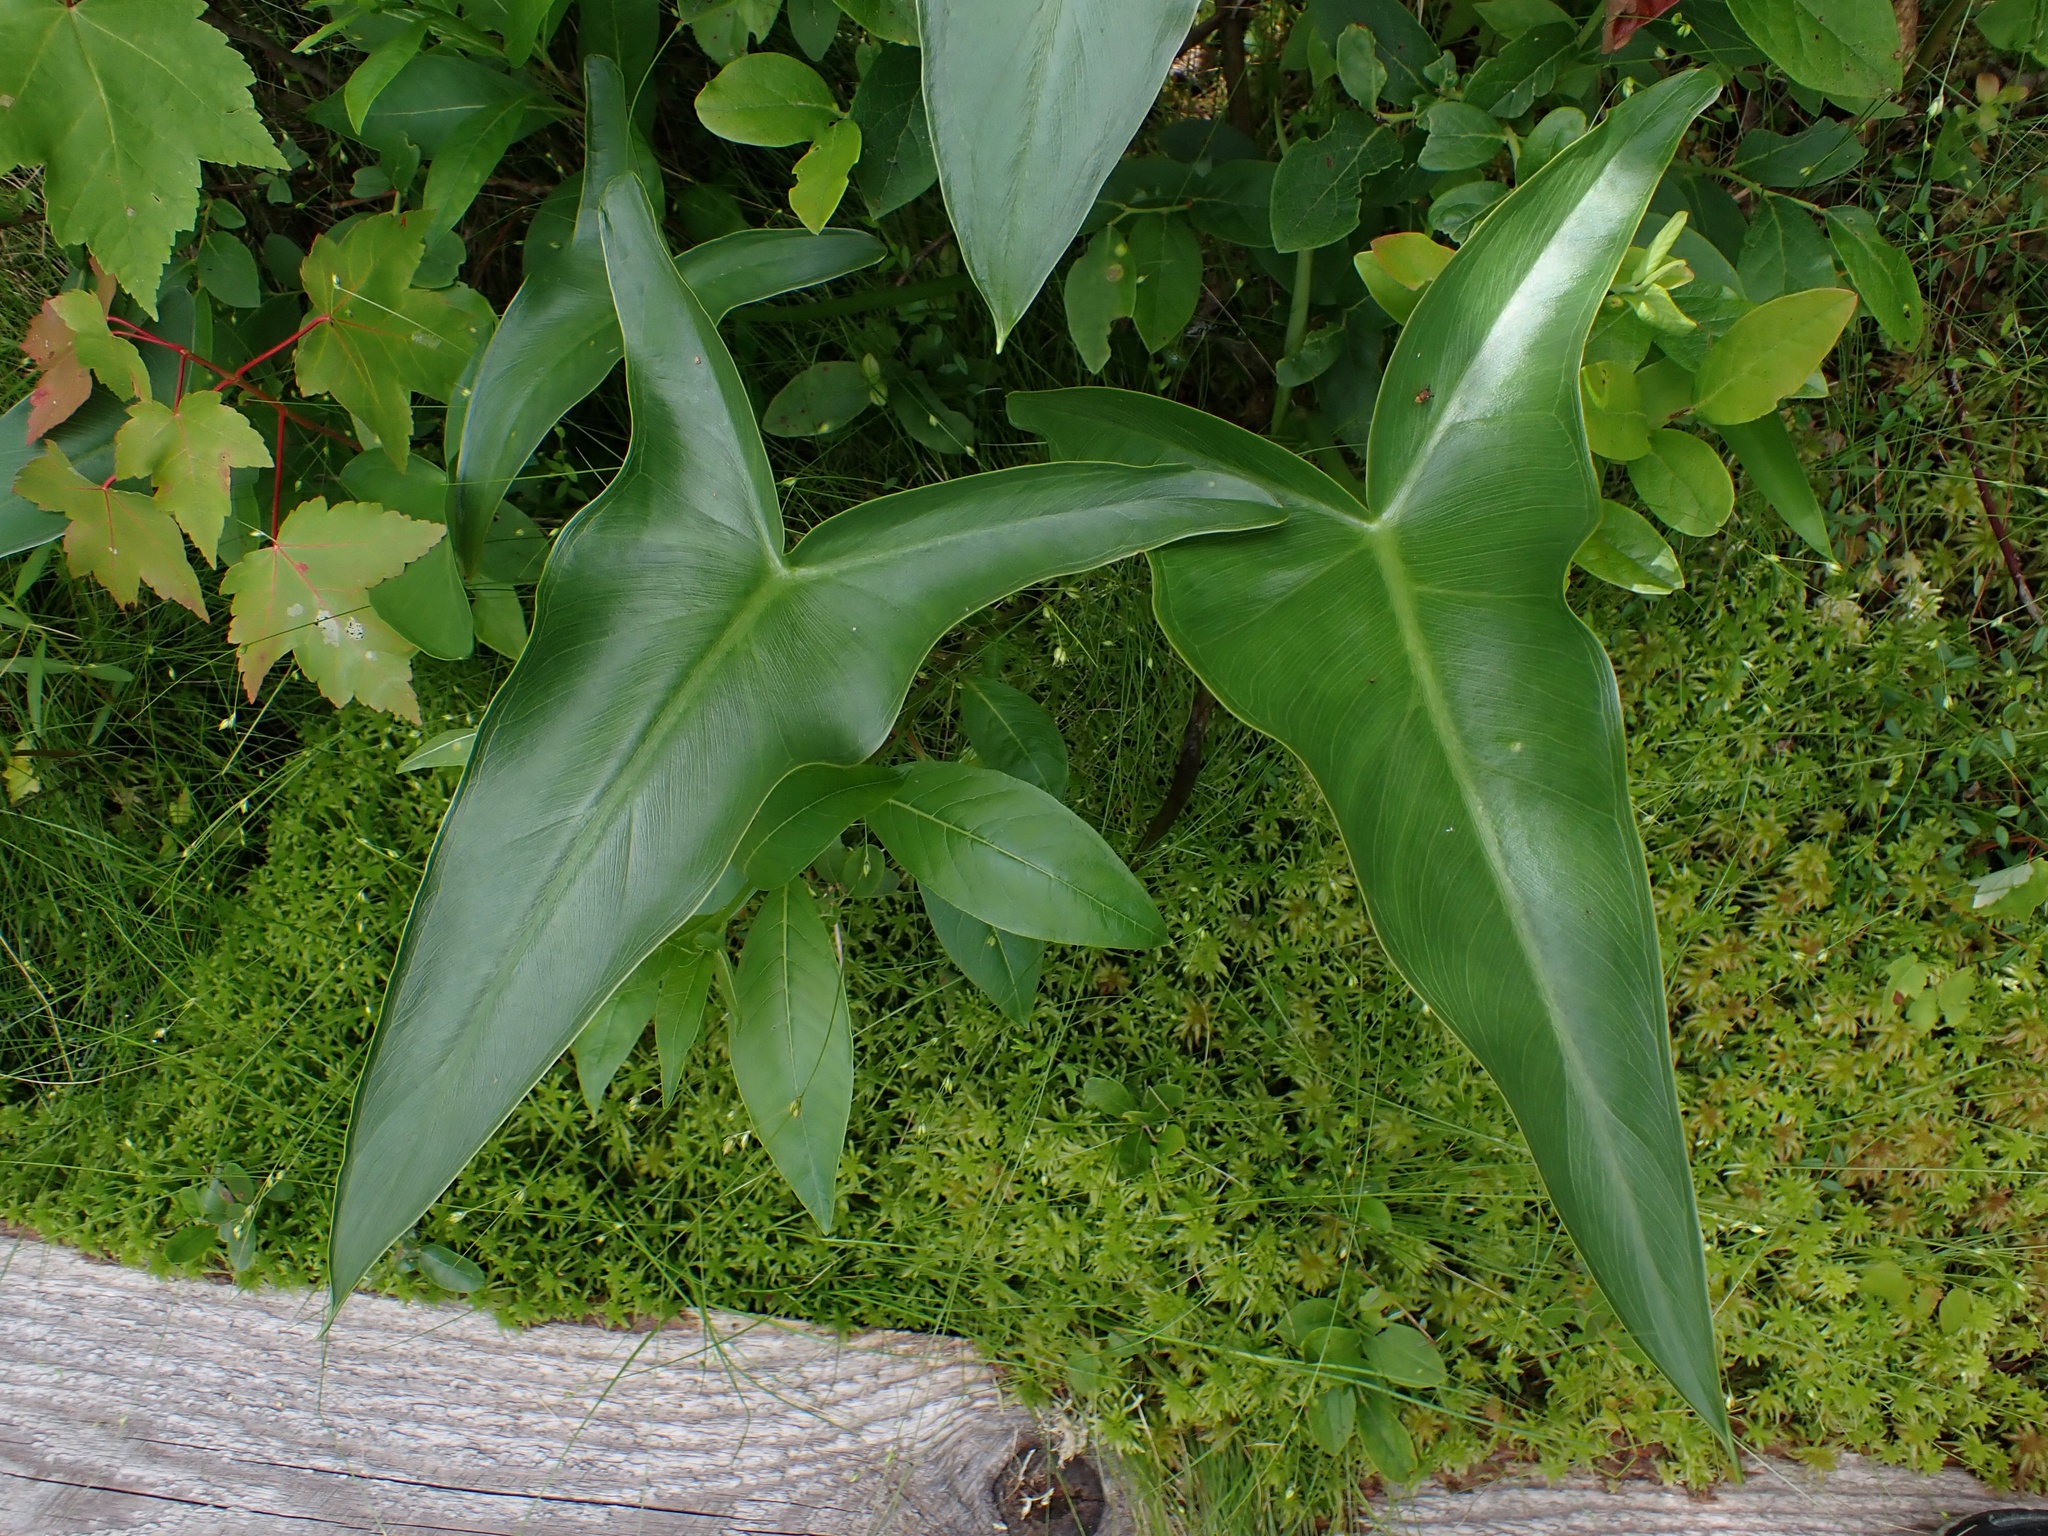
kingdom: Plantae
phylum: Tracheophyta
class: Liliopsida
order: Alismatales
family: Araceae
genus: Peltandra
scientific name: Peltandra virginica
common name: Arrow arum
